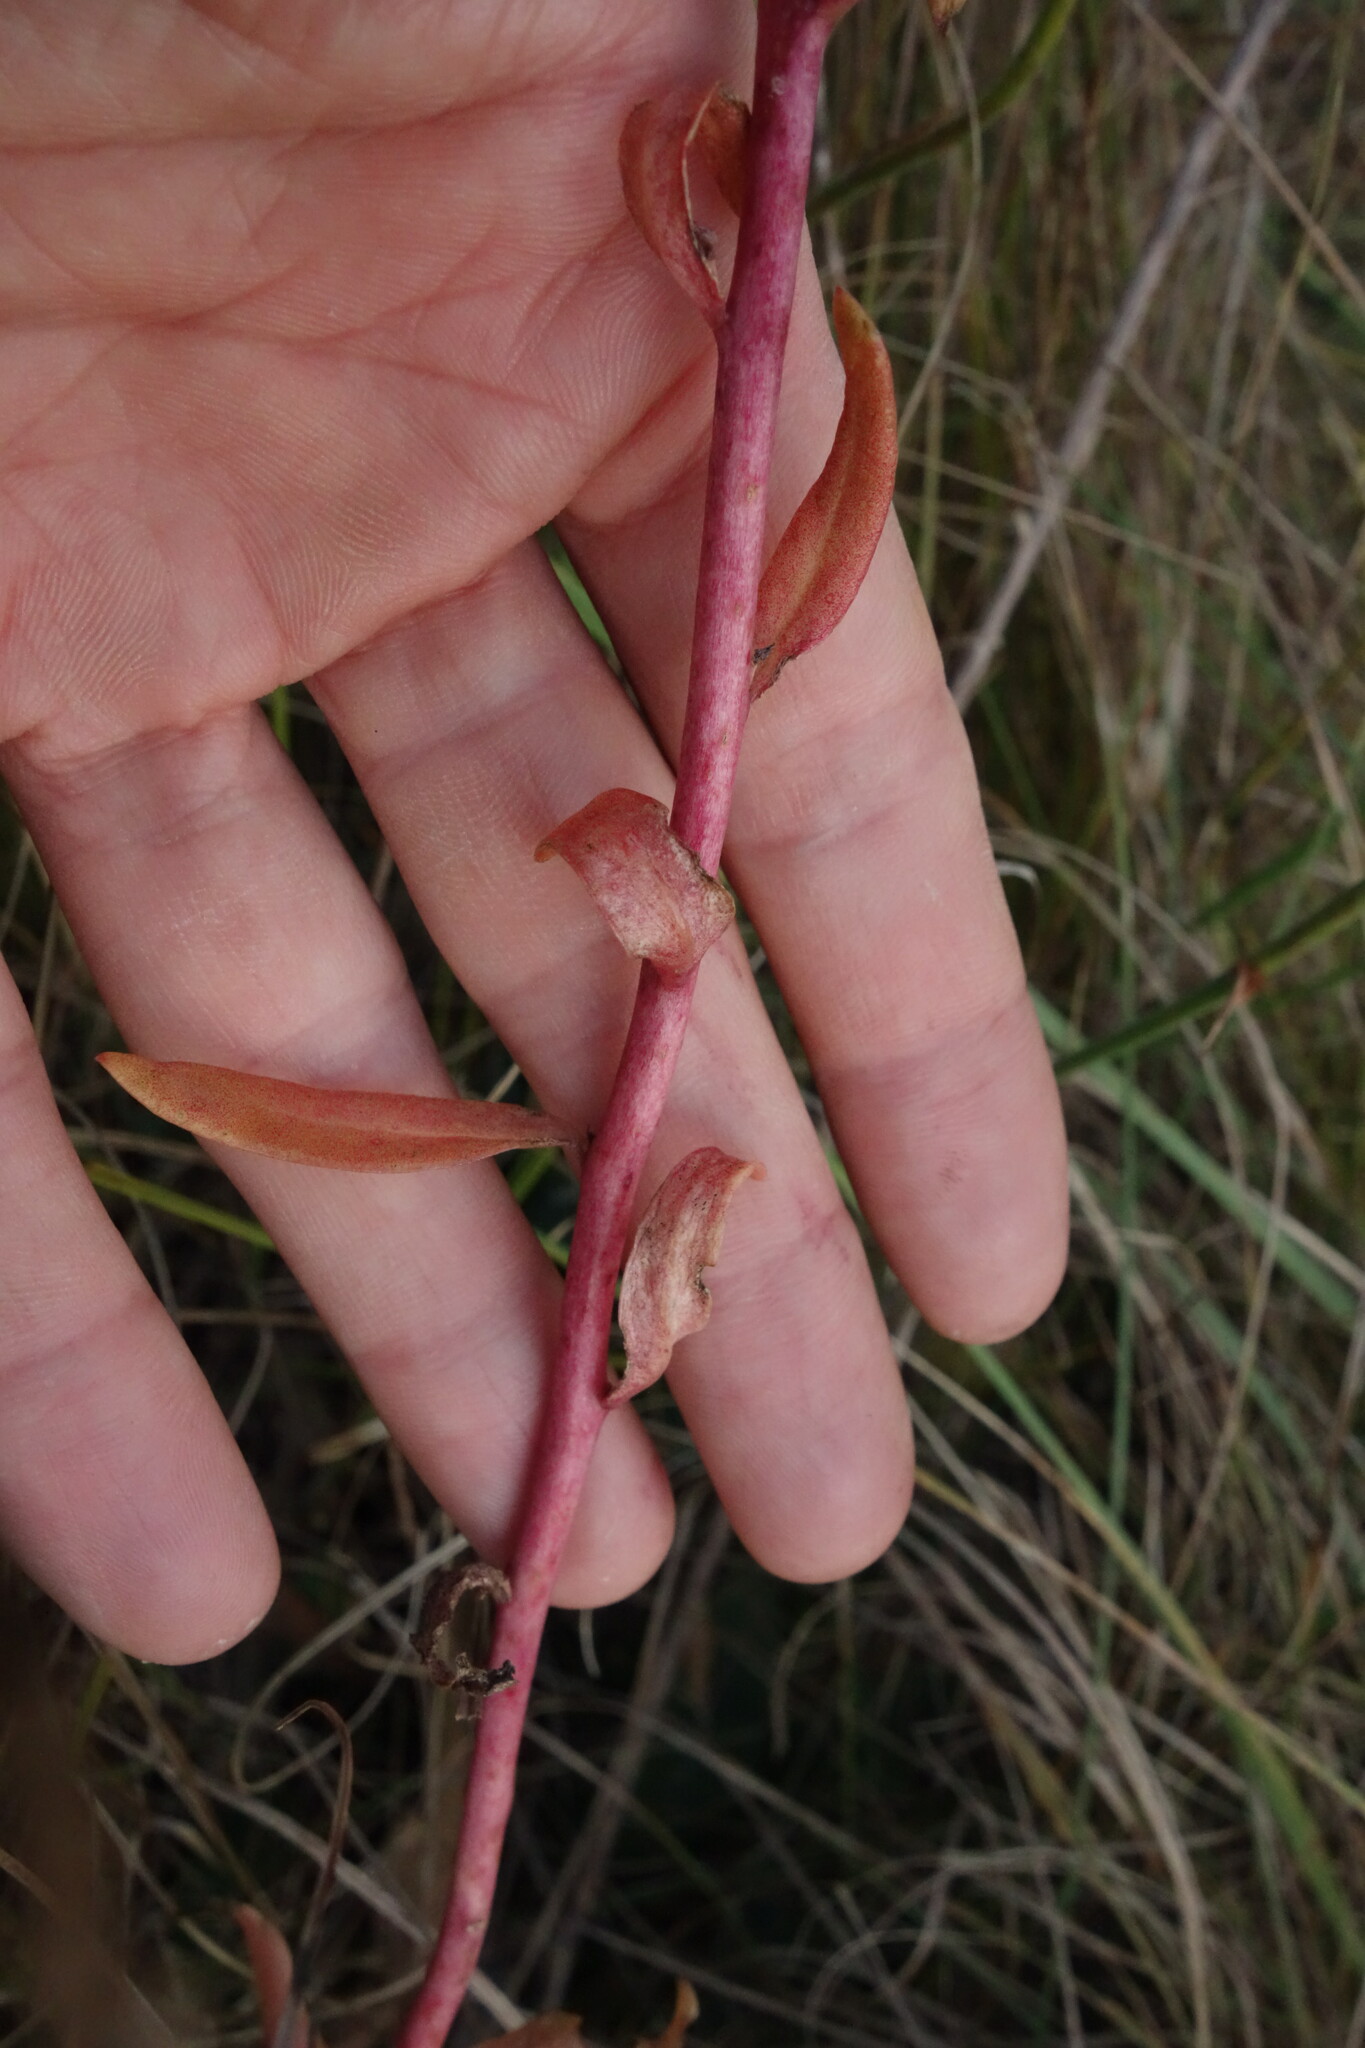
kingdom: Plantae
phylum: Tracheophyta
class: Magnoliopsida
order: Saxifragales
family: Crassulaceae
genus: Hylotelephium
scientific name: Hylotelephium telephium
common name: Live-forever
